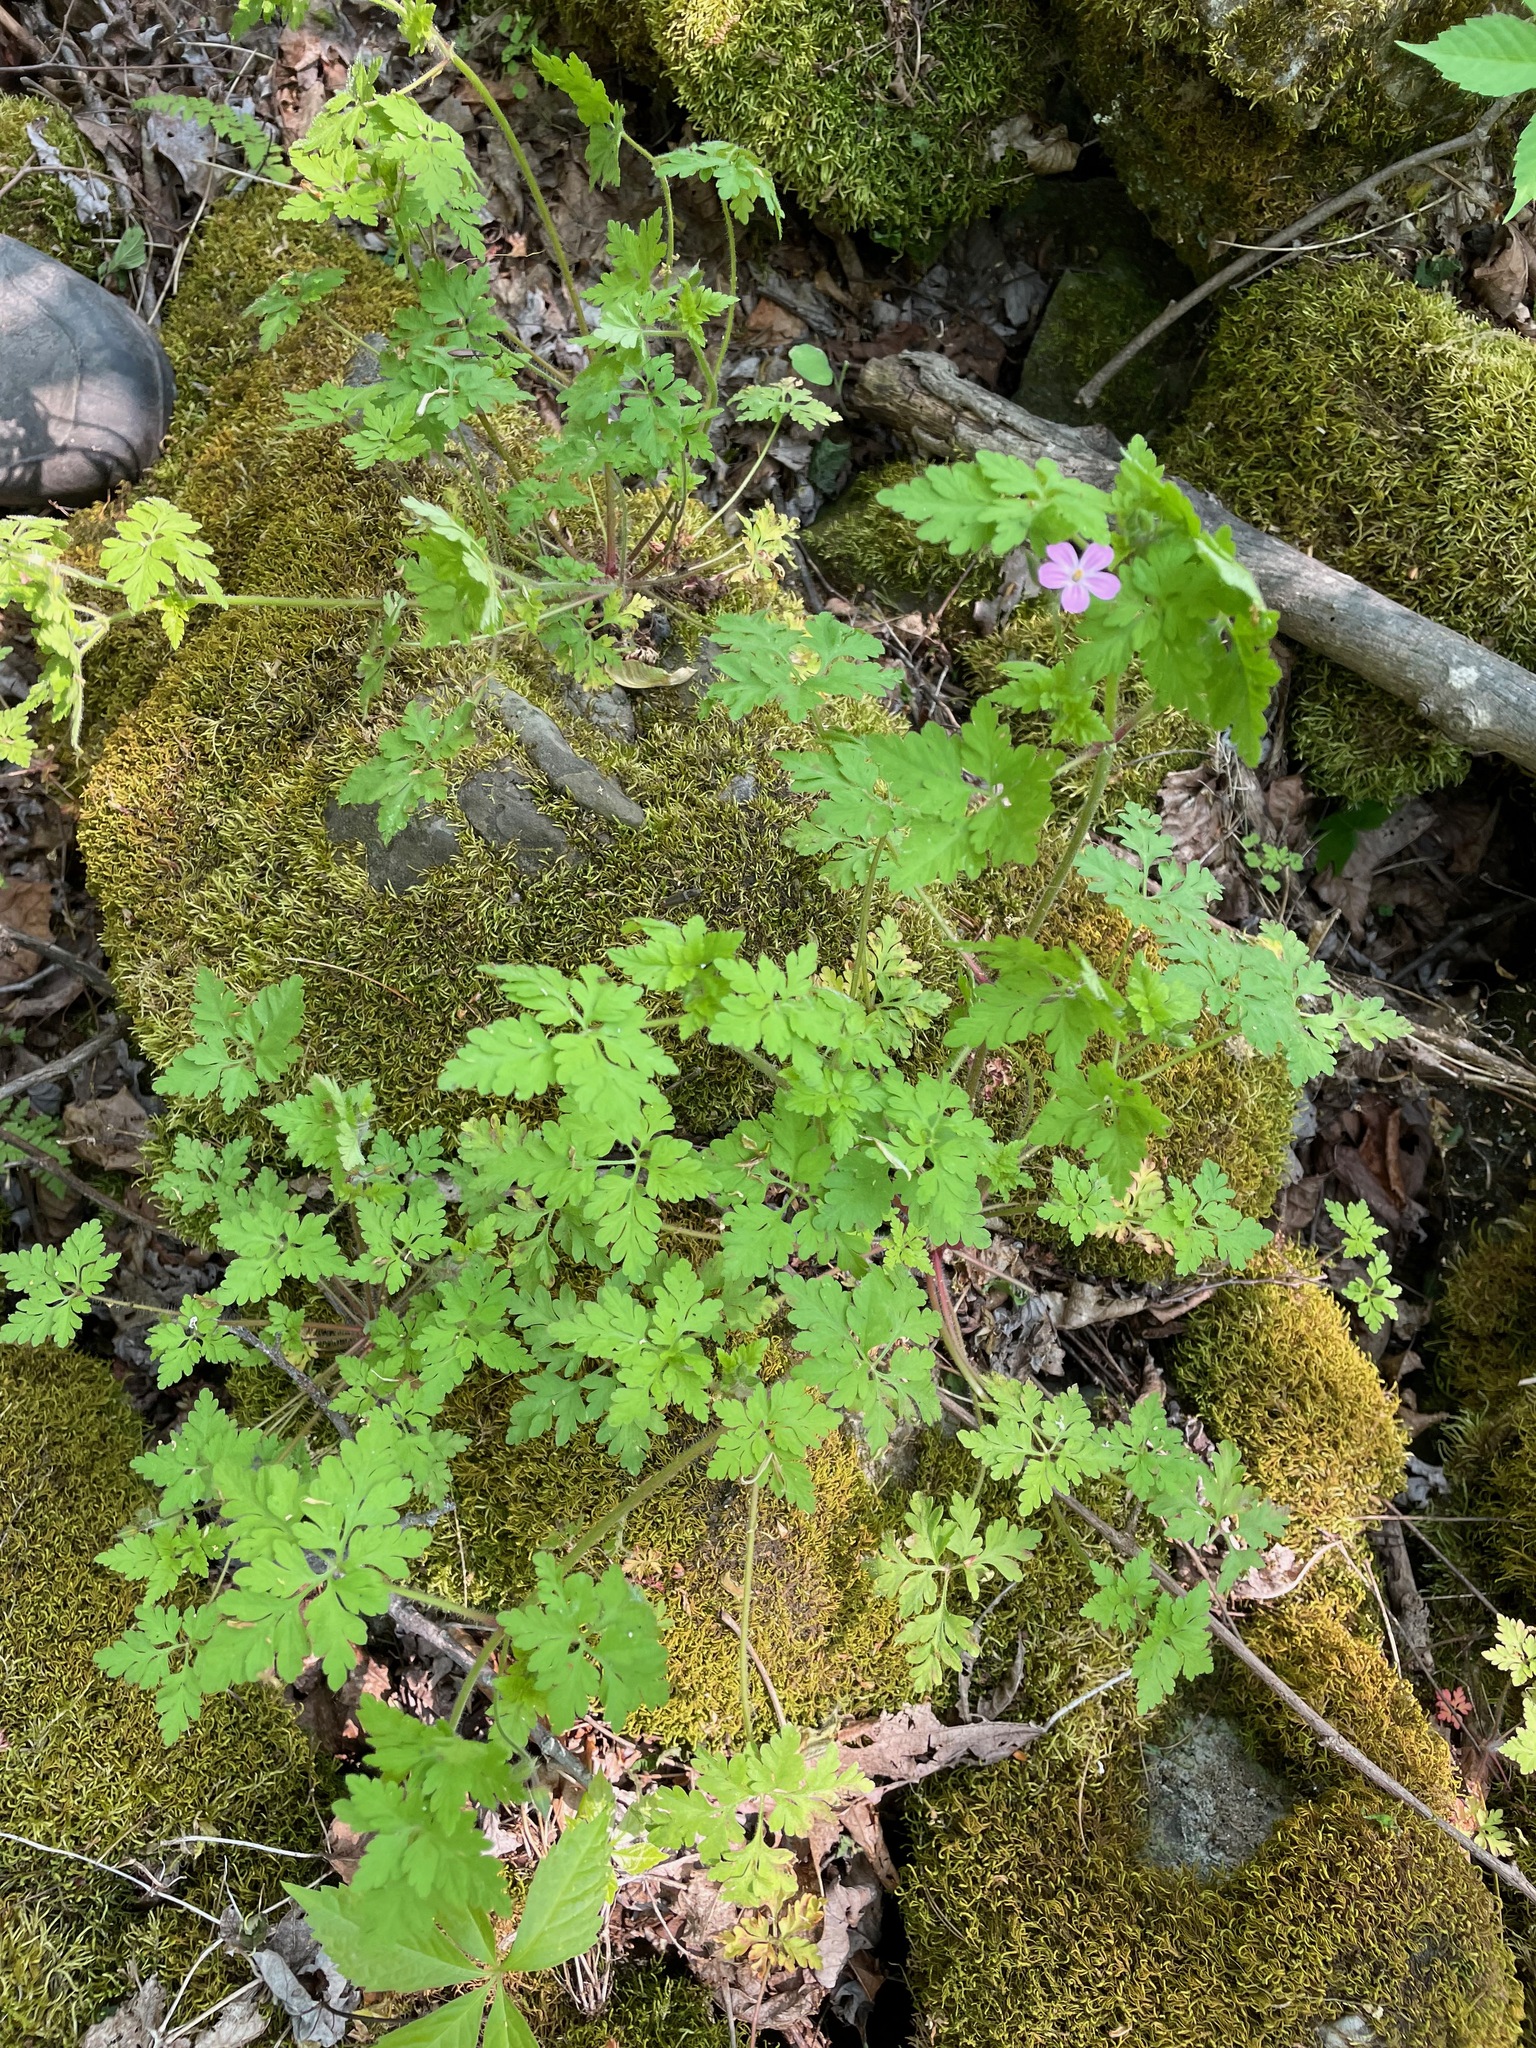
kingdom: Plantae
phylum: Tracheophyta
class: Magnoliopsida
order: Geraniales
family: Geraniaceae
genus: Geranium
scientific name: Geranium robertianum
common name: Herb-robert
